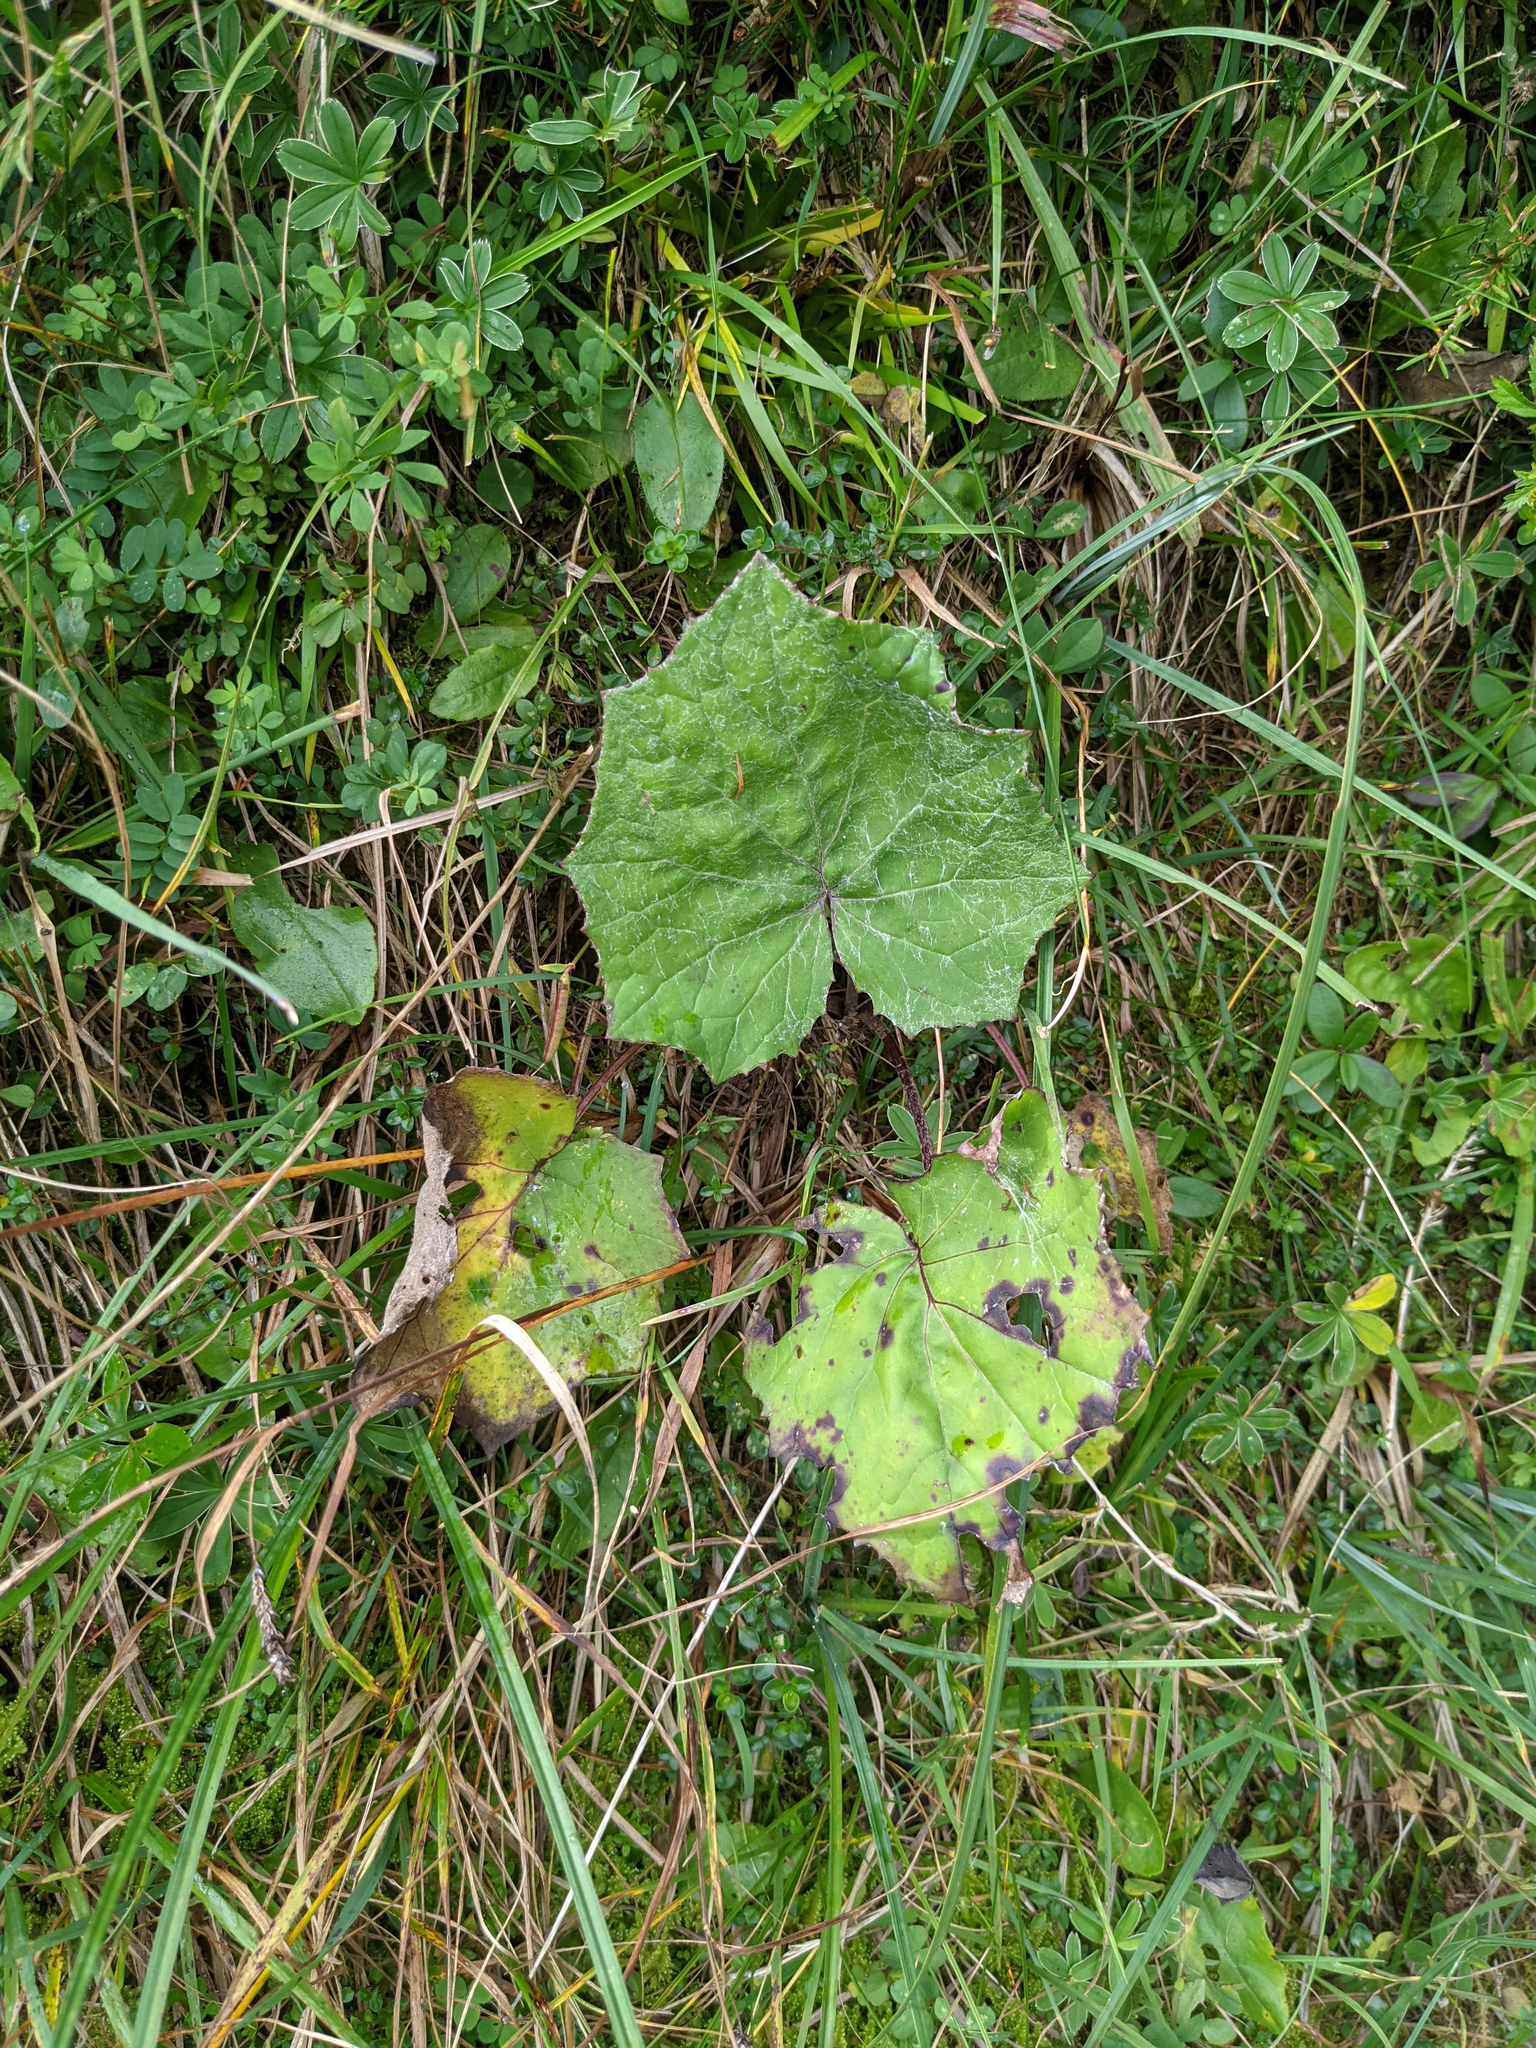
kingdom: Plantae
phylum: Tracheophyta
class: Magnoliopsida
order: Asterales
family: Asteraceae
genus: Tussilago
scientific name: Tussilago farfara
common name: Coltsfoot
